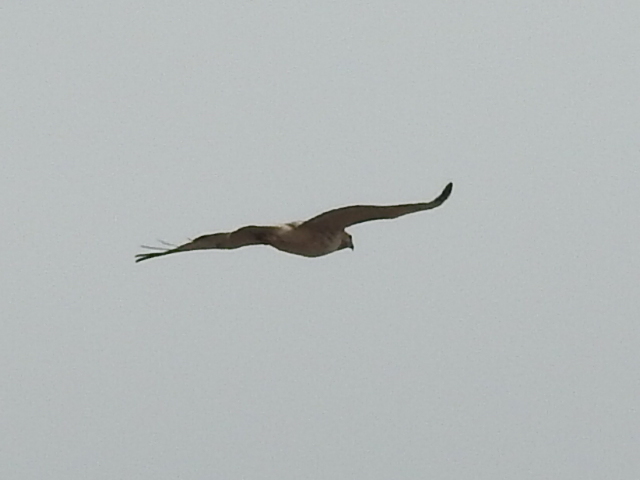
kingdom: Animalia
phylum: Chordata
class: Aves
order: Accipitriformes
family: Accipitridae
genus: Buteo
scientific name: Buteo jamaicensis
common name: Red-tailed hawk
